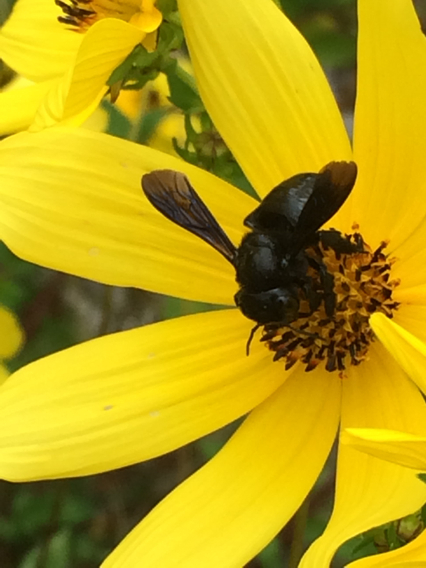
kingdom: Animalia
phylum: Arthropoda
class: Insecta
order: Hymenoptera
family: Megachilidae
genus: Megachile
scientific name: Megachile xylocopoides
